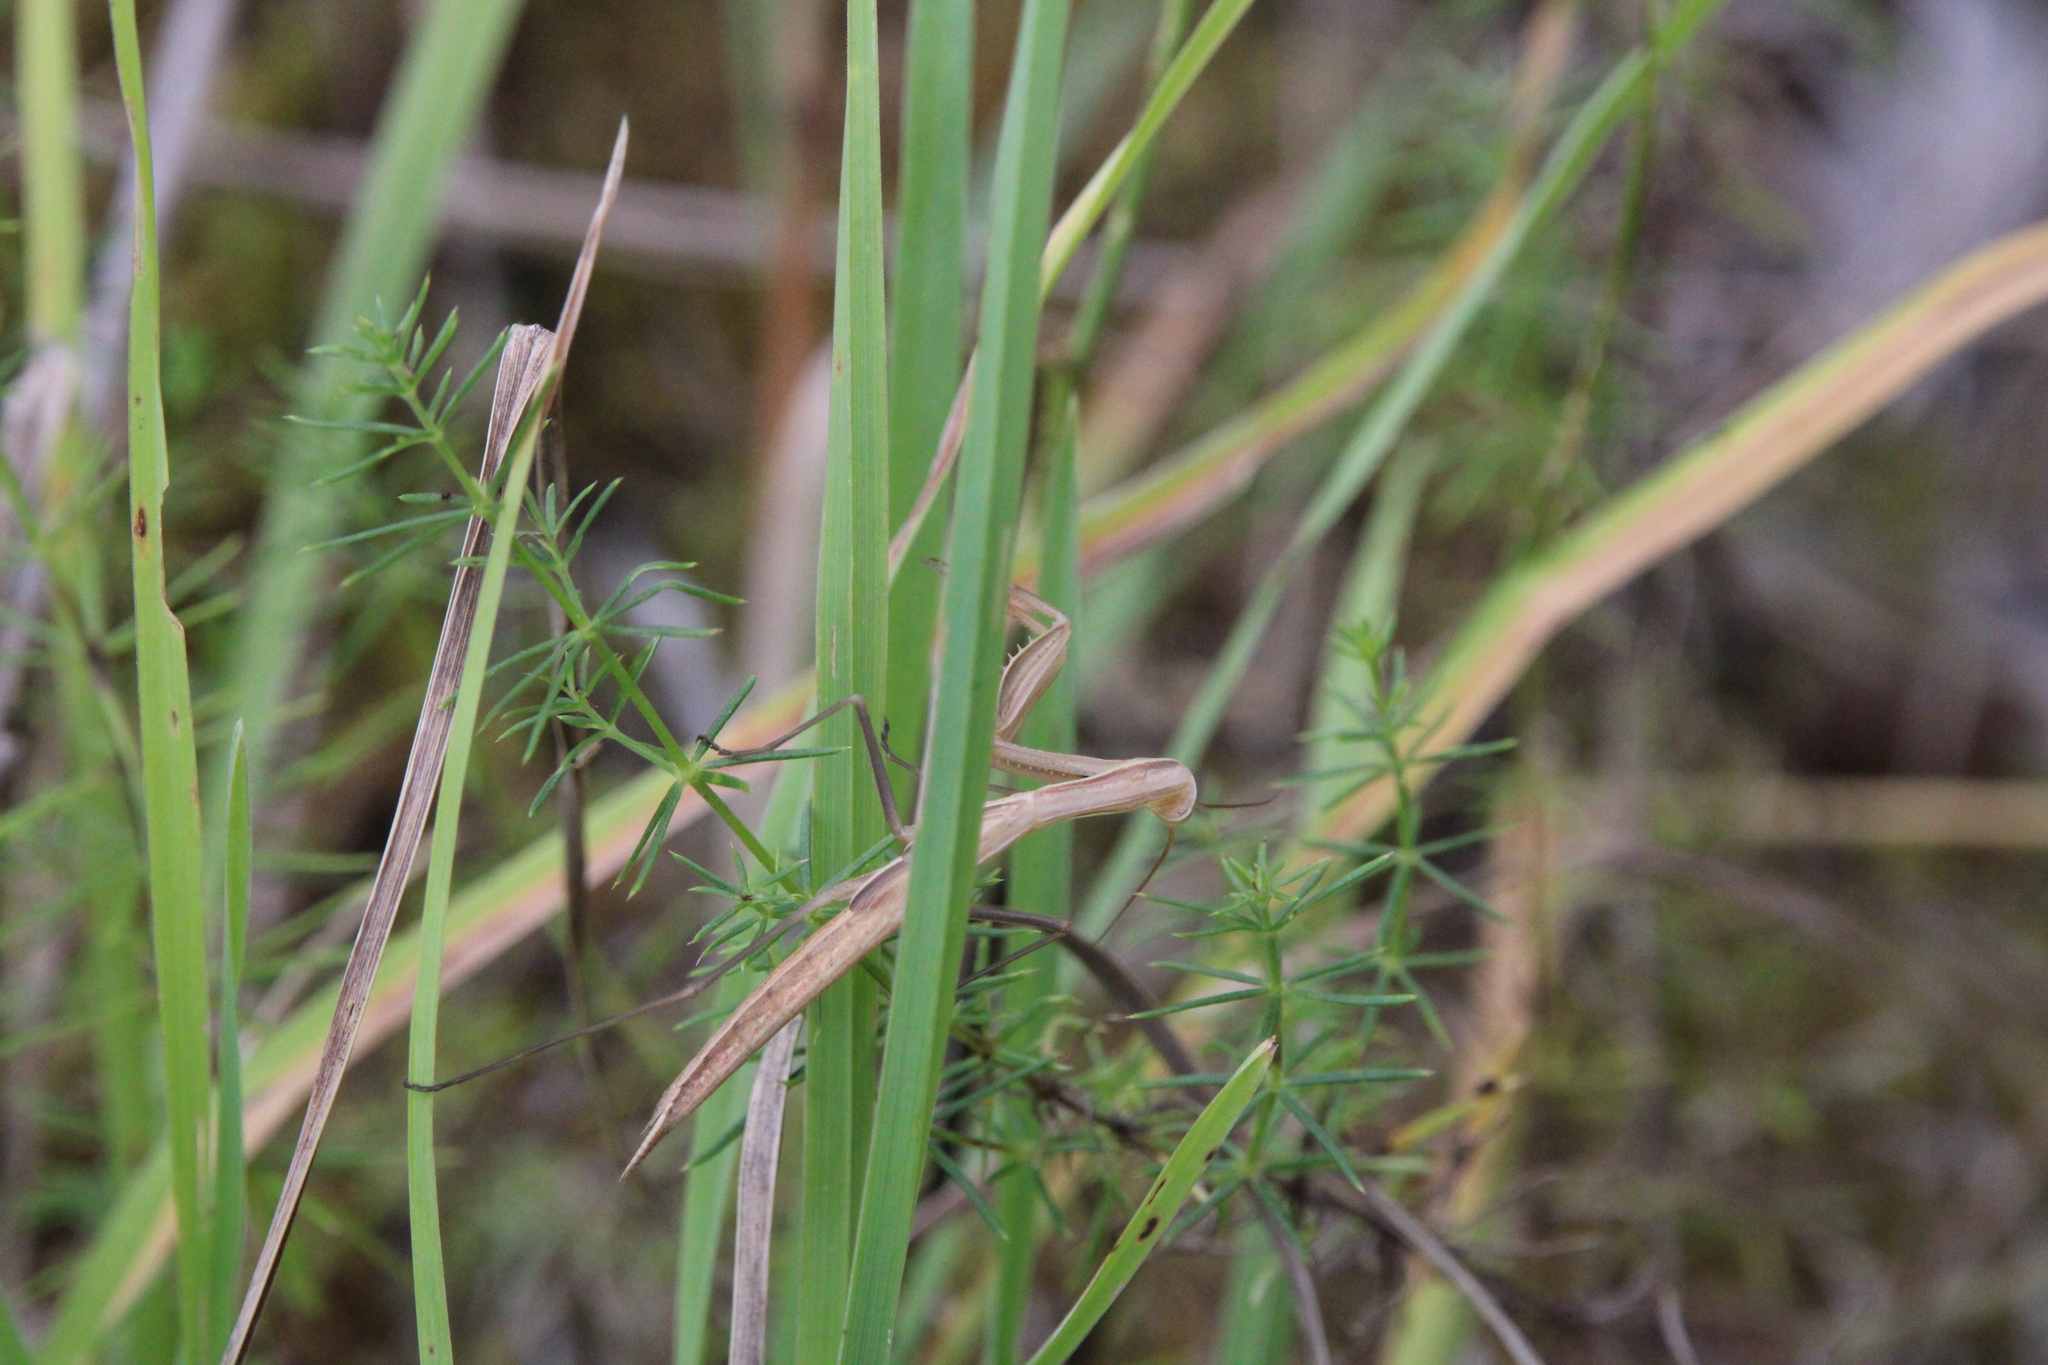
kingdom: Animalia
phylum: Arthropoda
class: Insecta
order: Mantodea
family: Mantidae
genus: Mantis
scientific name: Mantis religiosa
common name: Praying mantis
